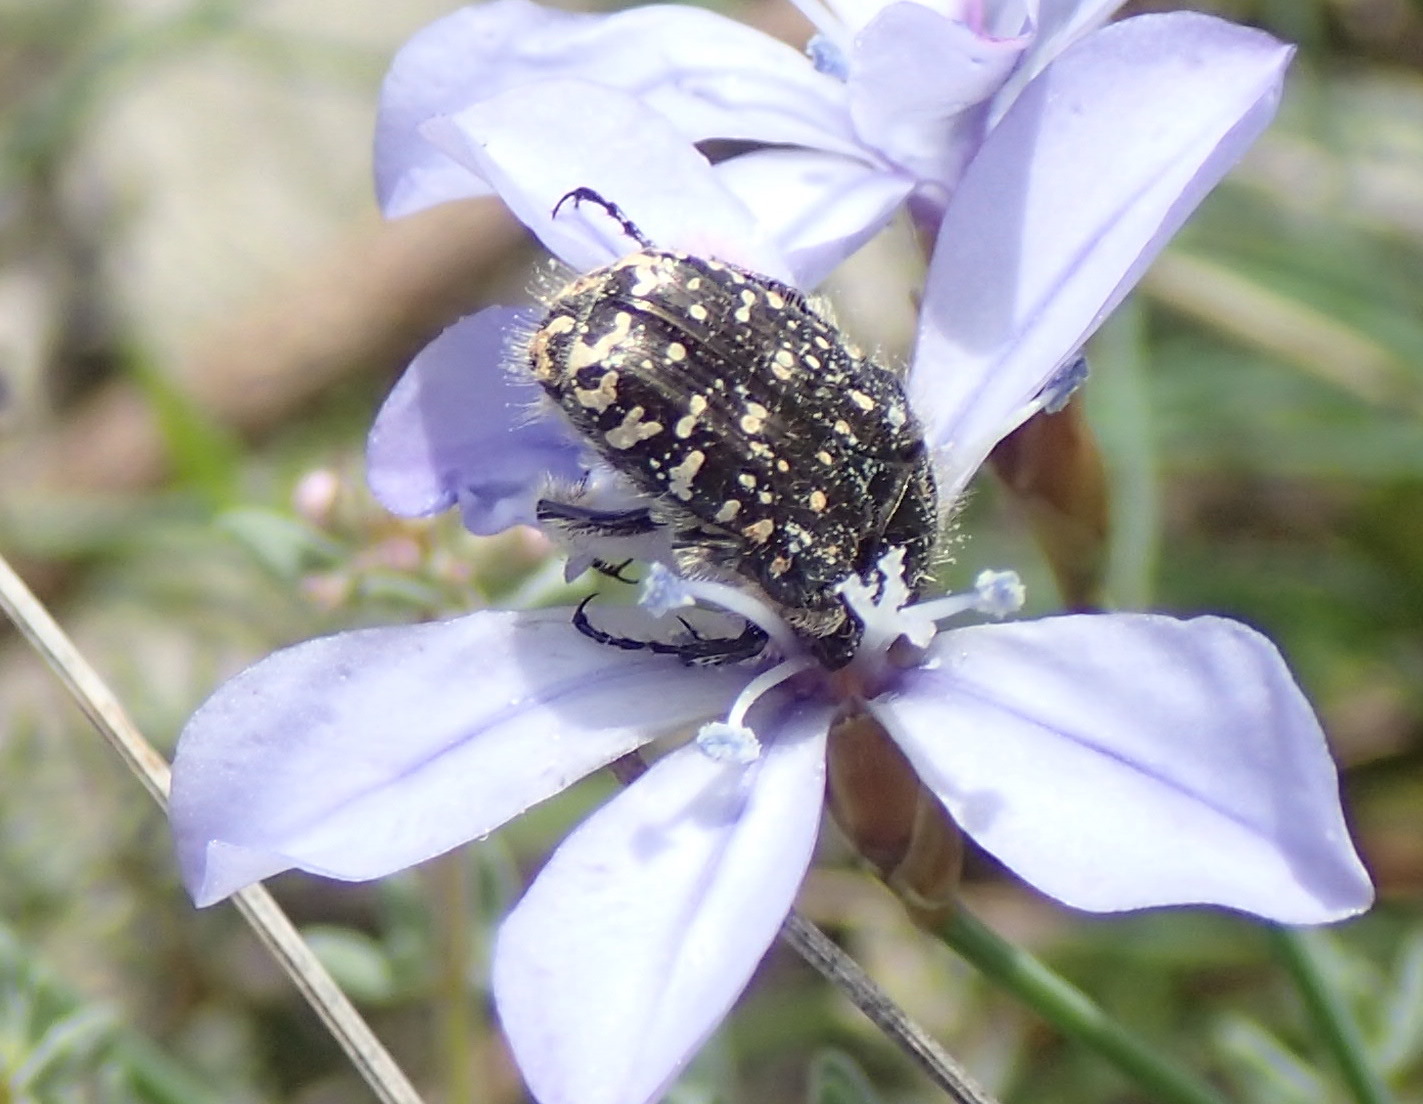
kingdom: Animalia
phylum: Arthropoda
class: Insecta
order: Coleoptera
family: Scarabaeidae
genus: Oxythyrea
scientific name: Oxythyrea funesta
